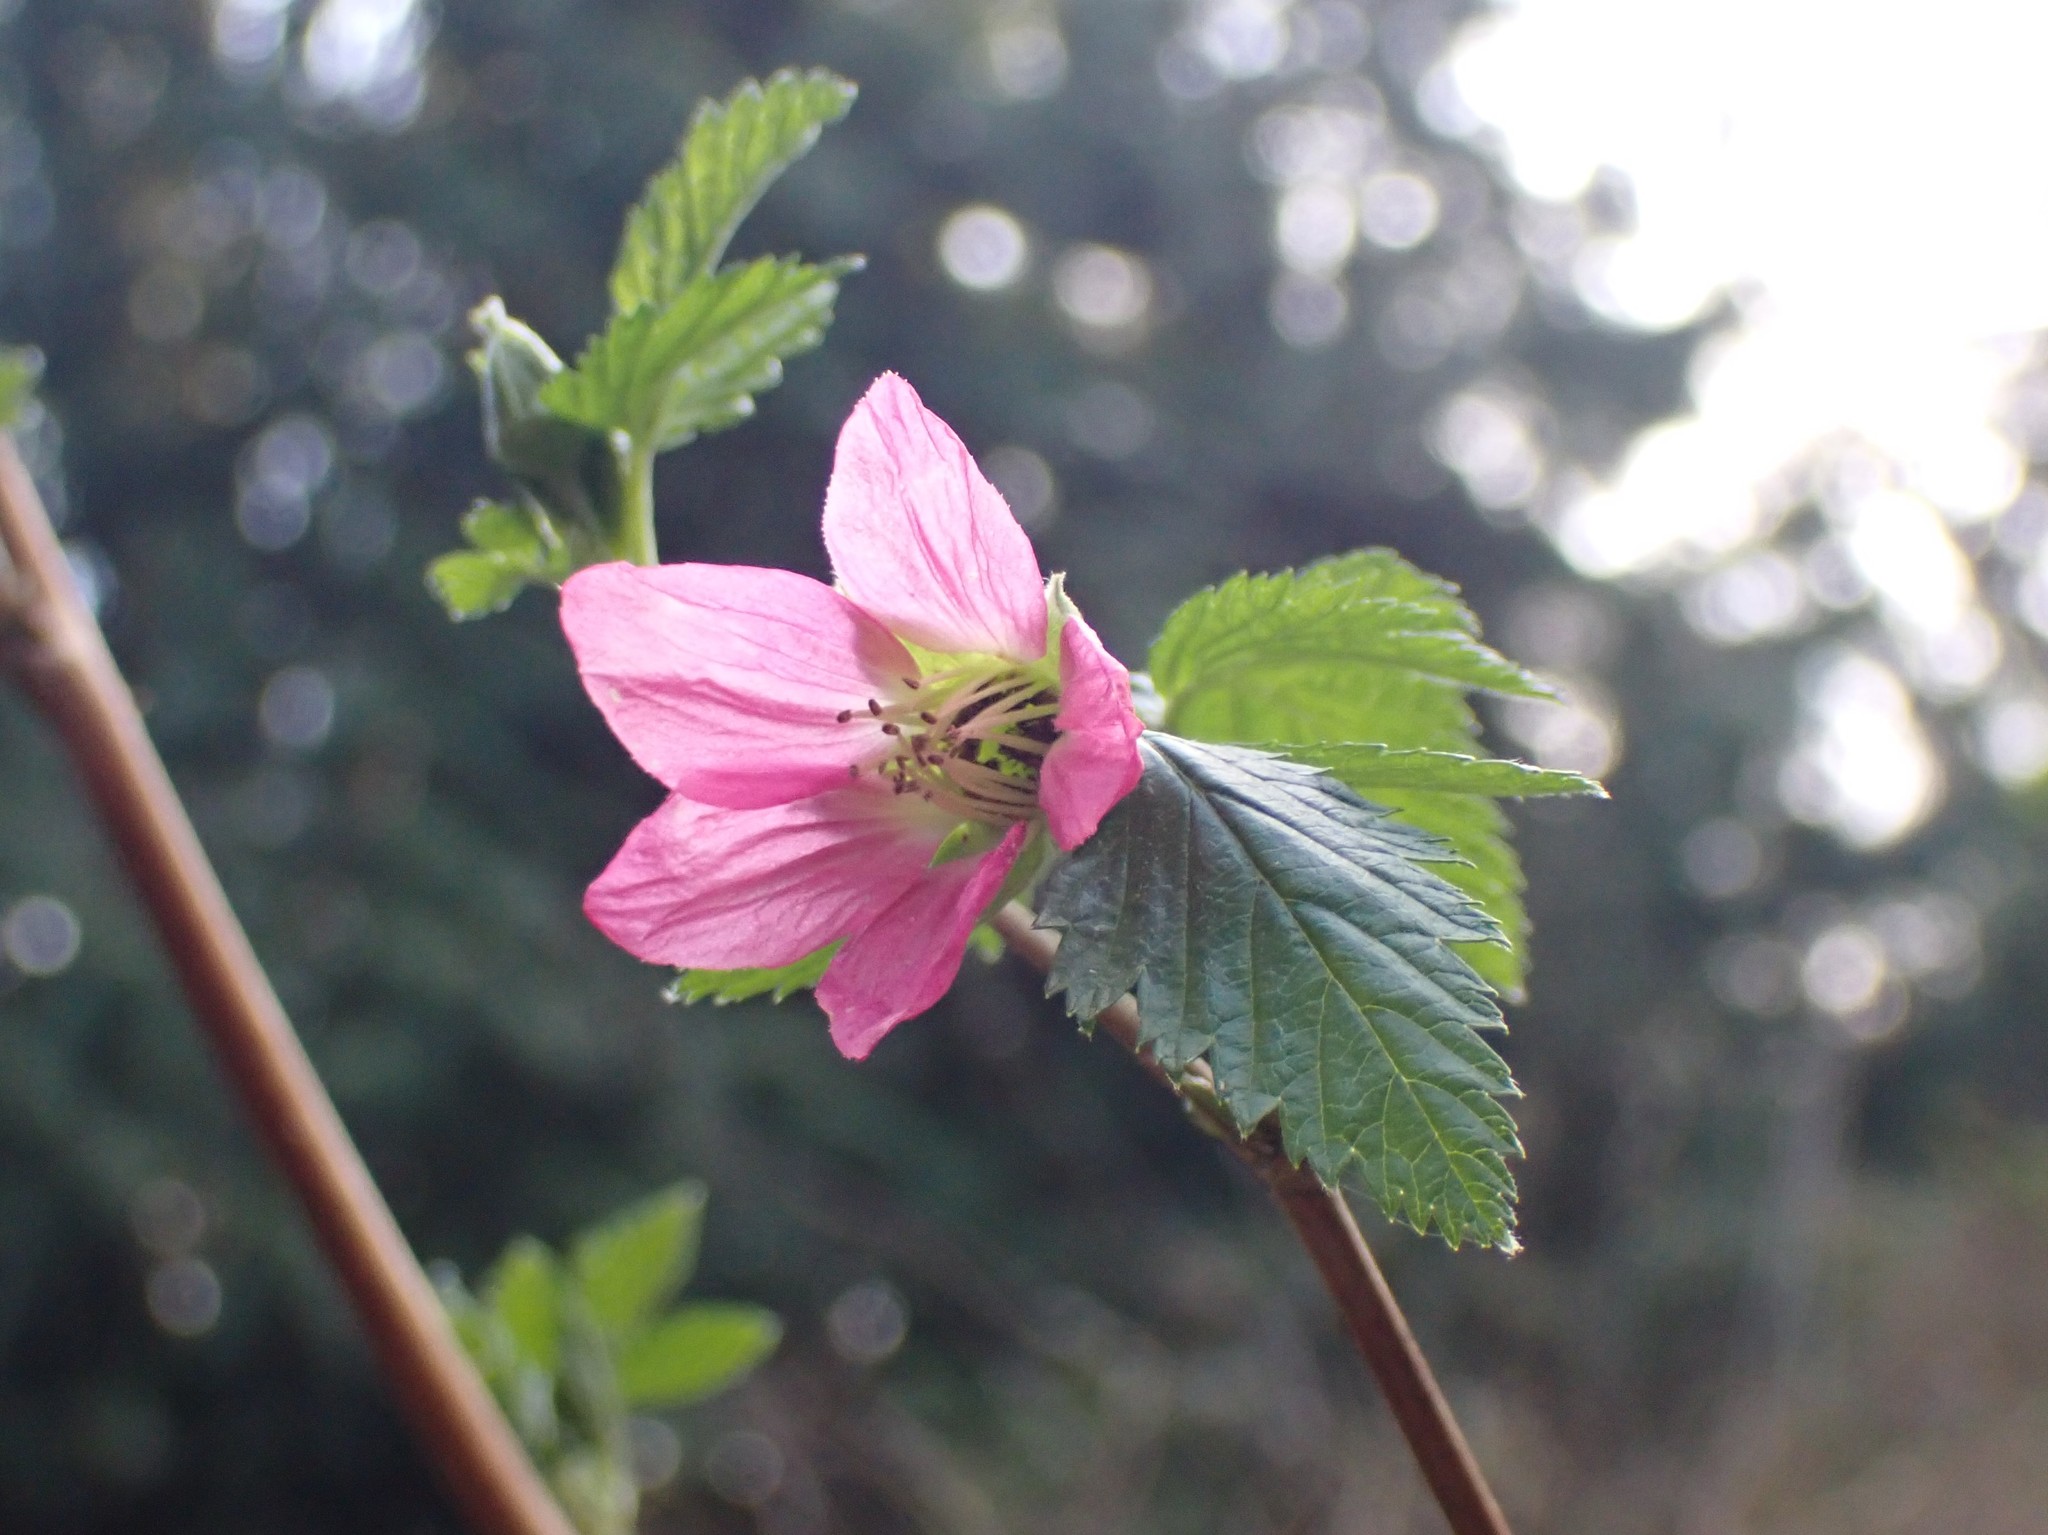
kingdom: Plantae
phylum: Tracheophyta
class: Magnoliopsida
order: Rosales
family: Rosaceae
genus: Rubus
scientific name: Rubus spectabilis
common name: Salmonberry
